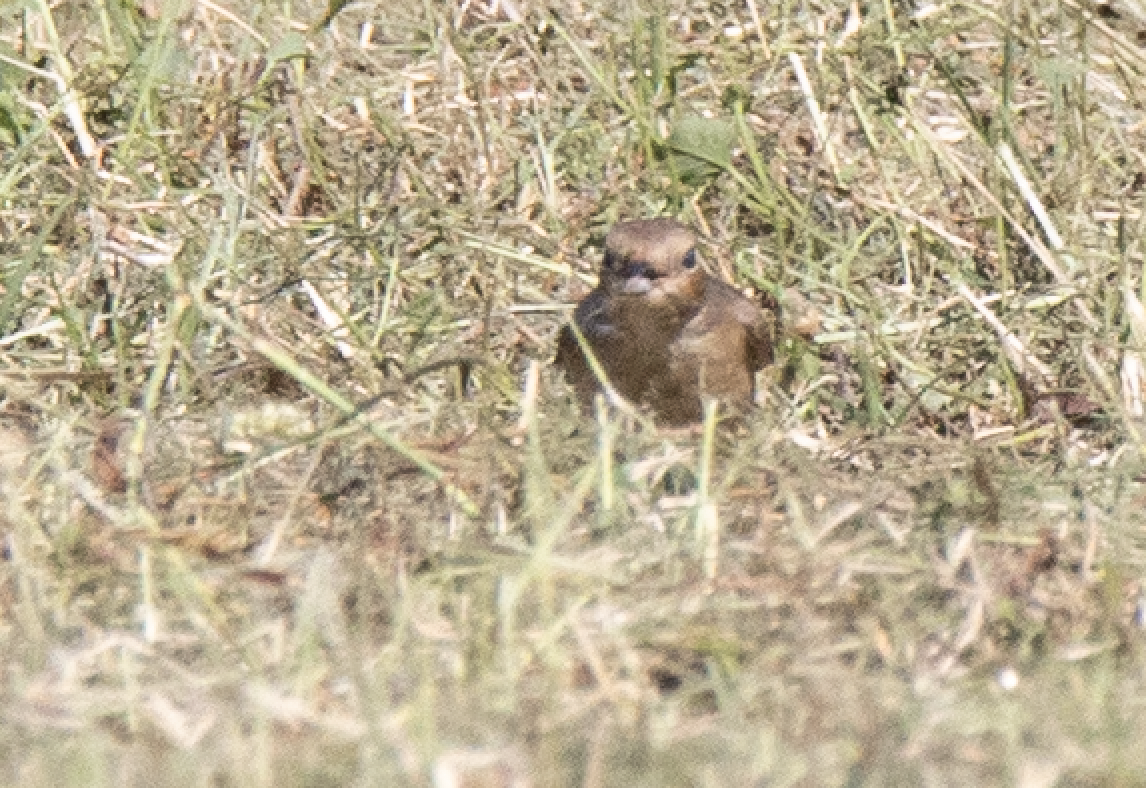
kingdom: Animalia
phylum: Chordata
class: Aves
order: Passeriformes
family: Muscicapidae
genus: Ficedula
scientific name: Ficedula hypoleuca
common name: European pied flycatcher
